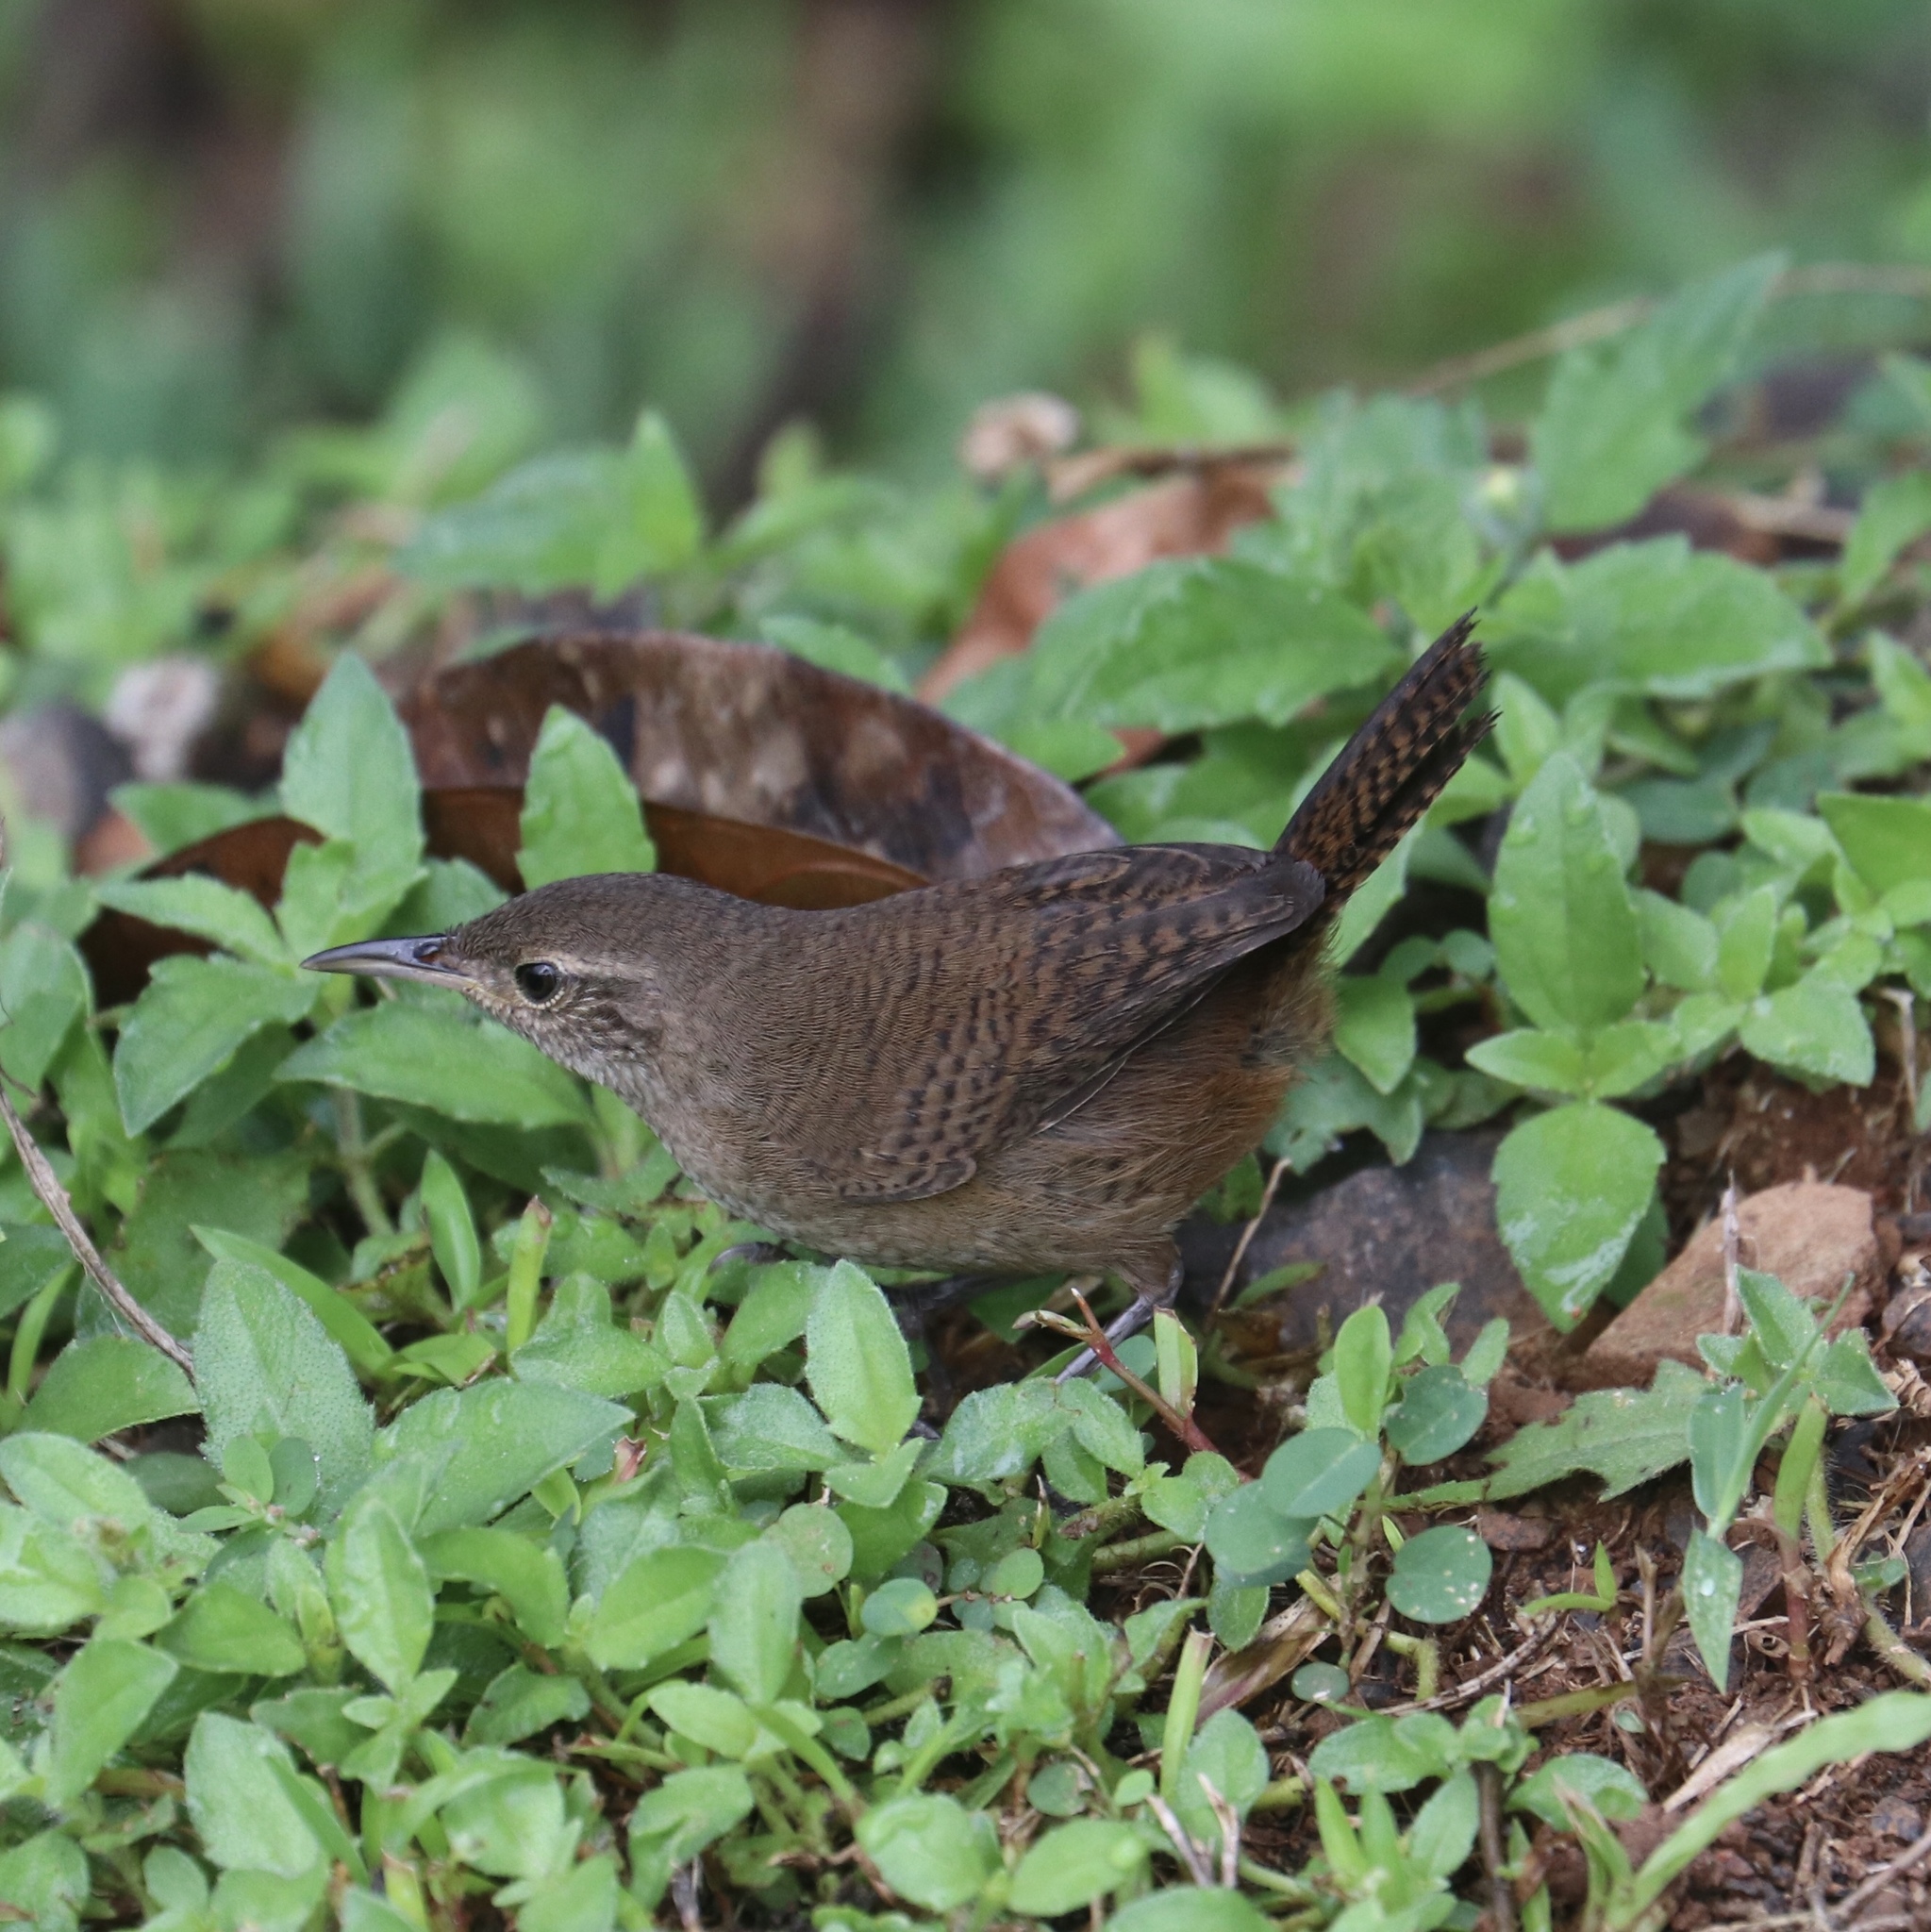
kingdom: Animalia
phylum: Chordata
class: Aves
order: Passeriformes
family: Troglodytidae
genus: Troglodytes
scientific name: Troglodytes aedon
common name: House wren
